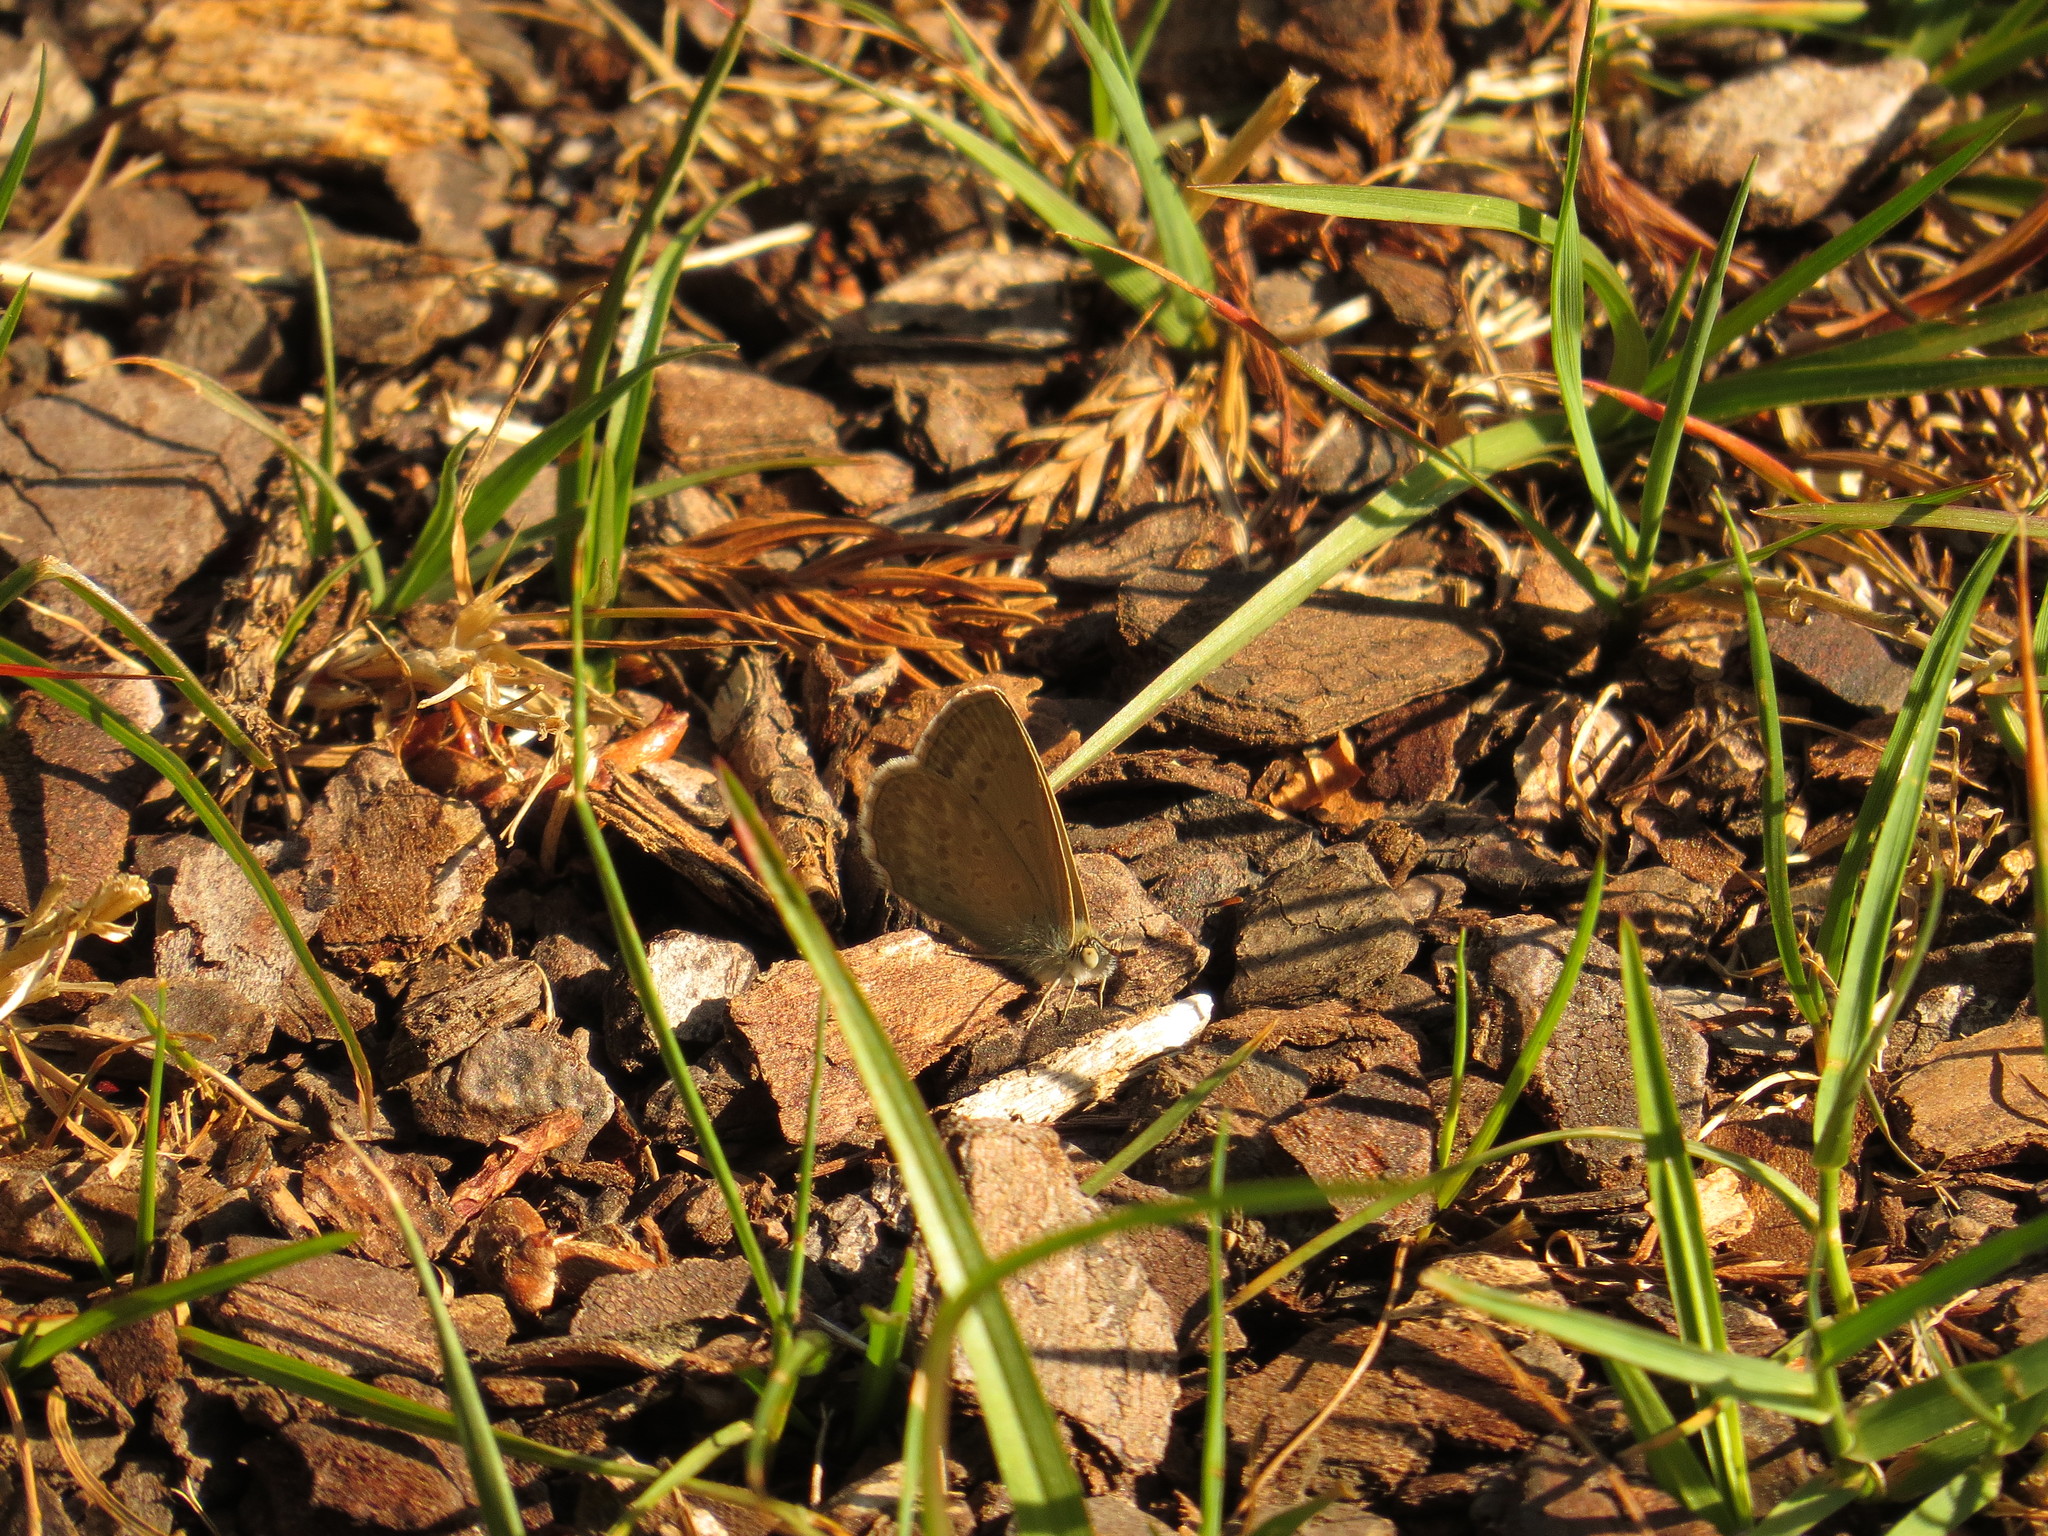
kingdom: Animalia
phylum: Arthropoda
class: Insecta
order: Lepidoptera
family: Lycaenidae
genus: Zizina
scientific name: Zizina labradus
